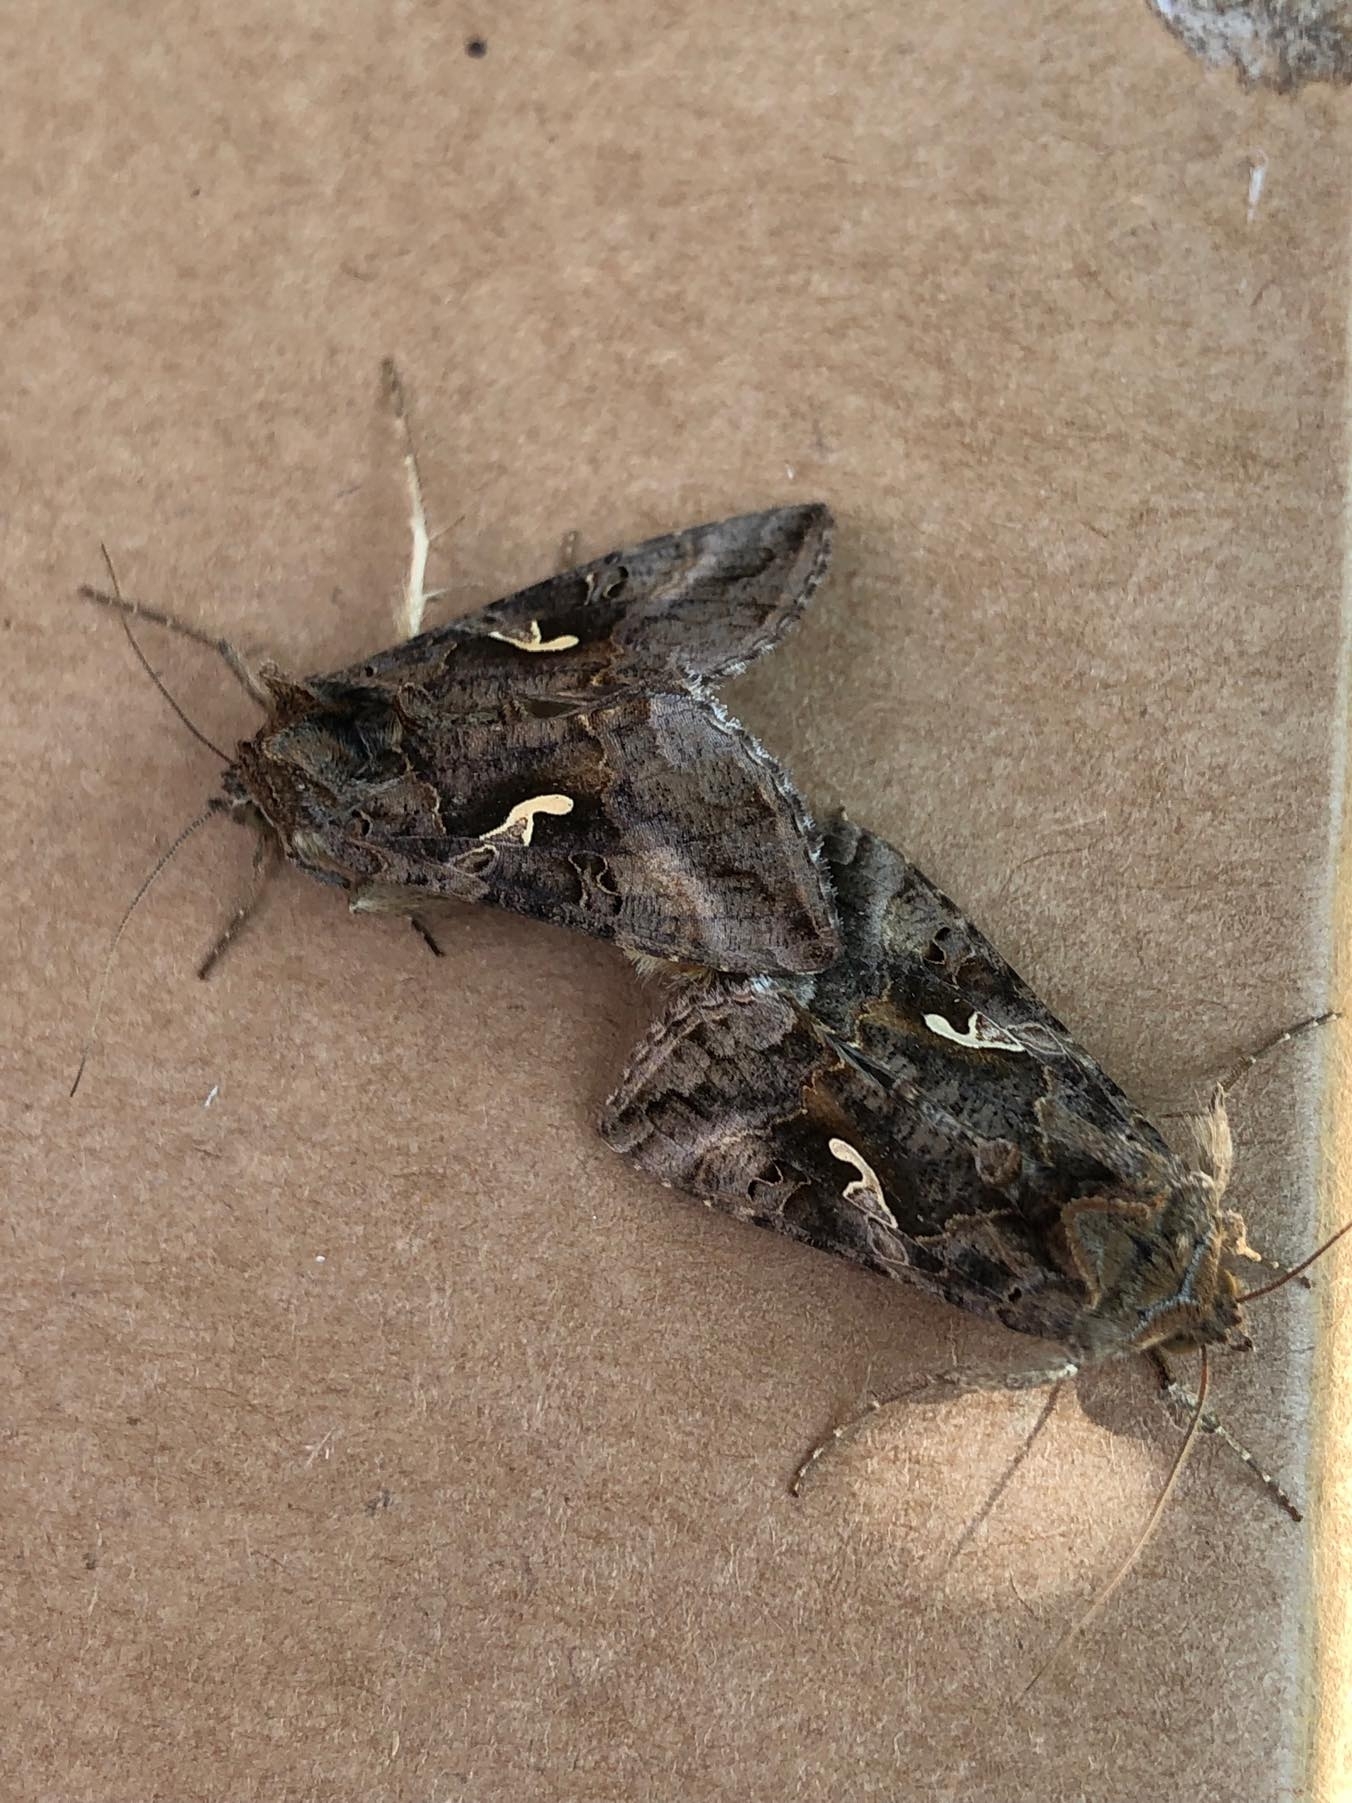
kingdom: Animalia
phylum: Arthropoda
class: Insecta
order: Lepidoptera
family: Noctuidae
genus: Autographa
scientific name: Autographa gamma
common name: Silver y
